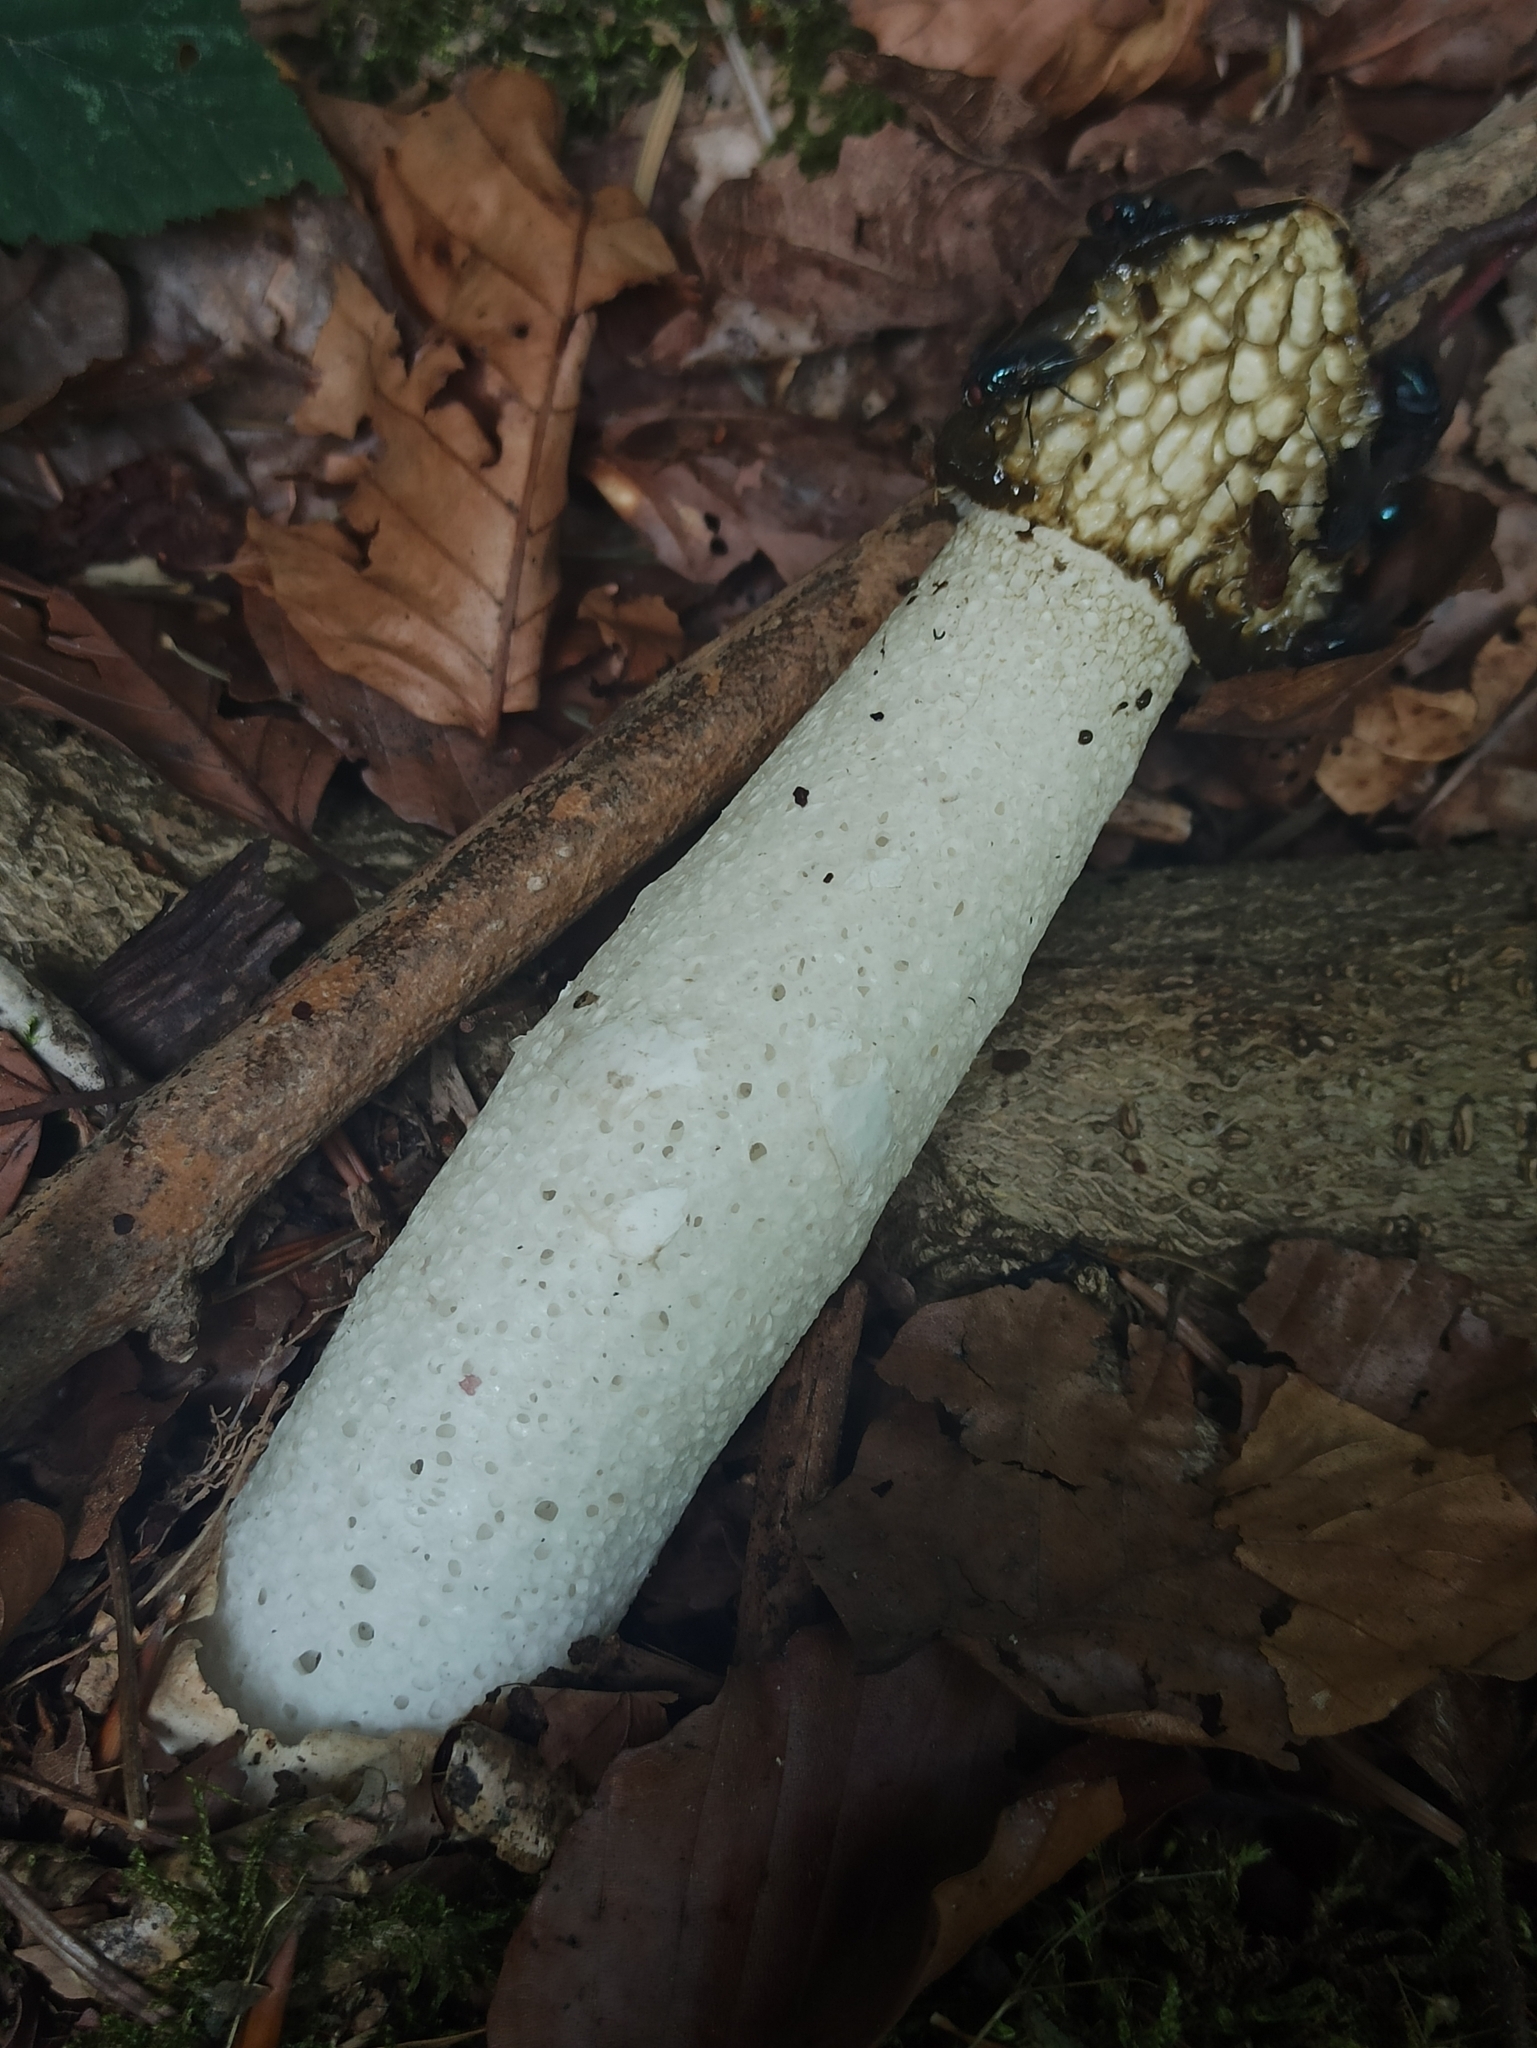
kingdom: Fungi
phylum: Basidiomycota
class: Agaricomycetes
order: Phallales
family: Phallaceae
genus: Phallus
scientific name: Phallus impudicus
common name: Common stinkhorn
